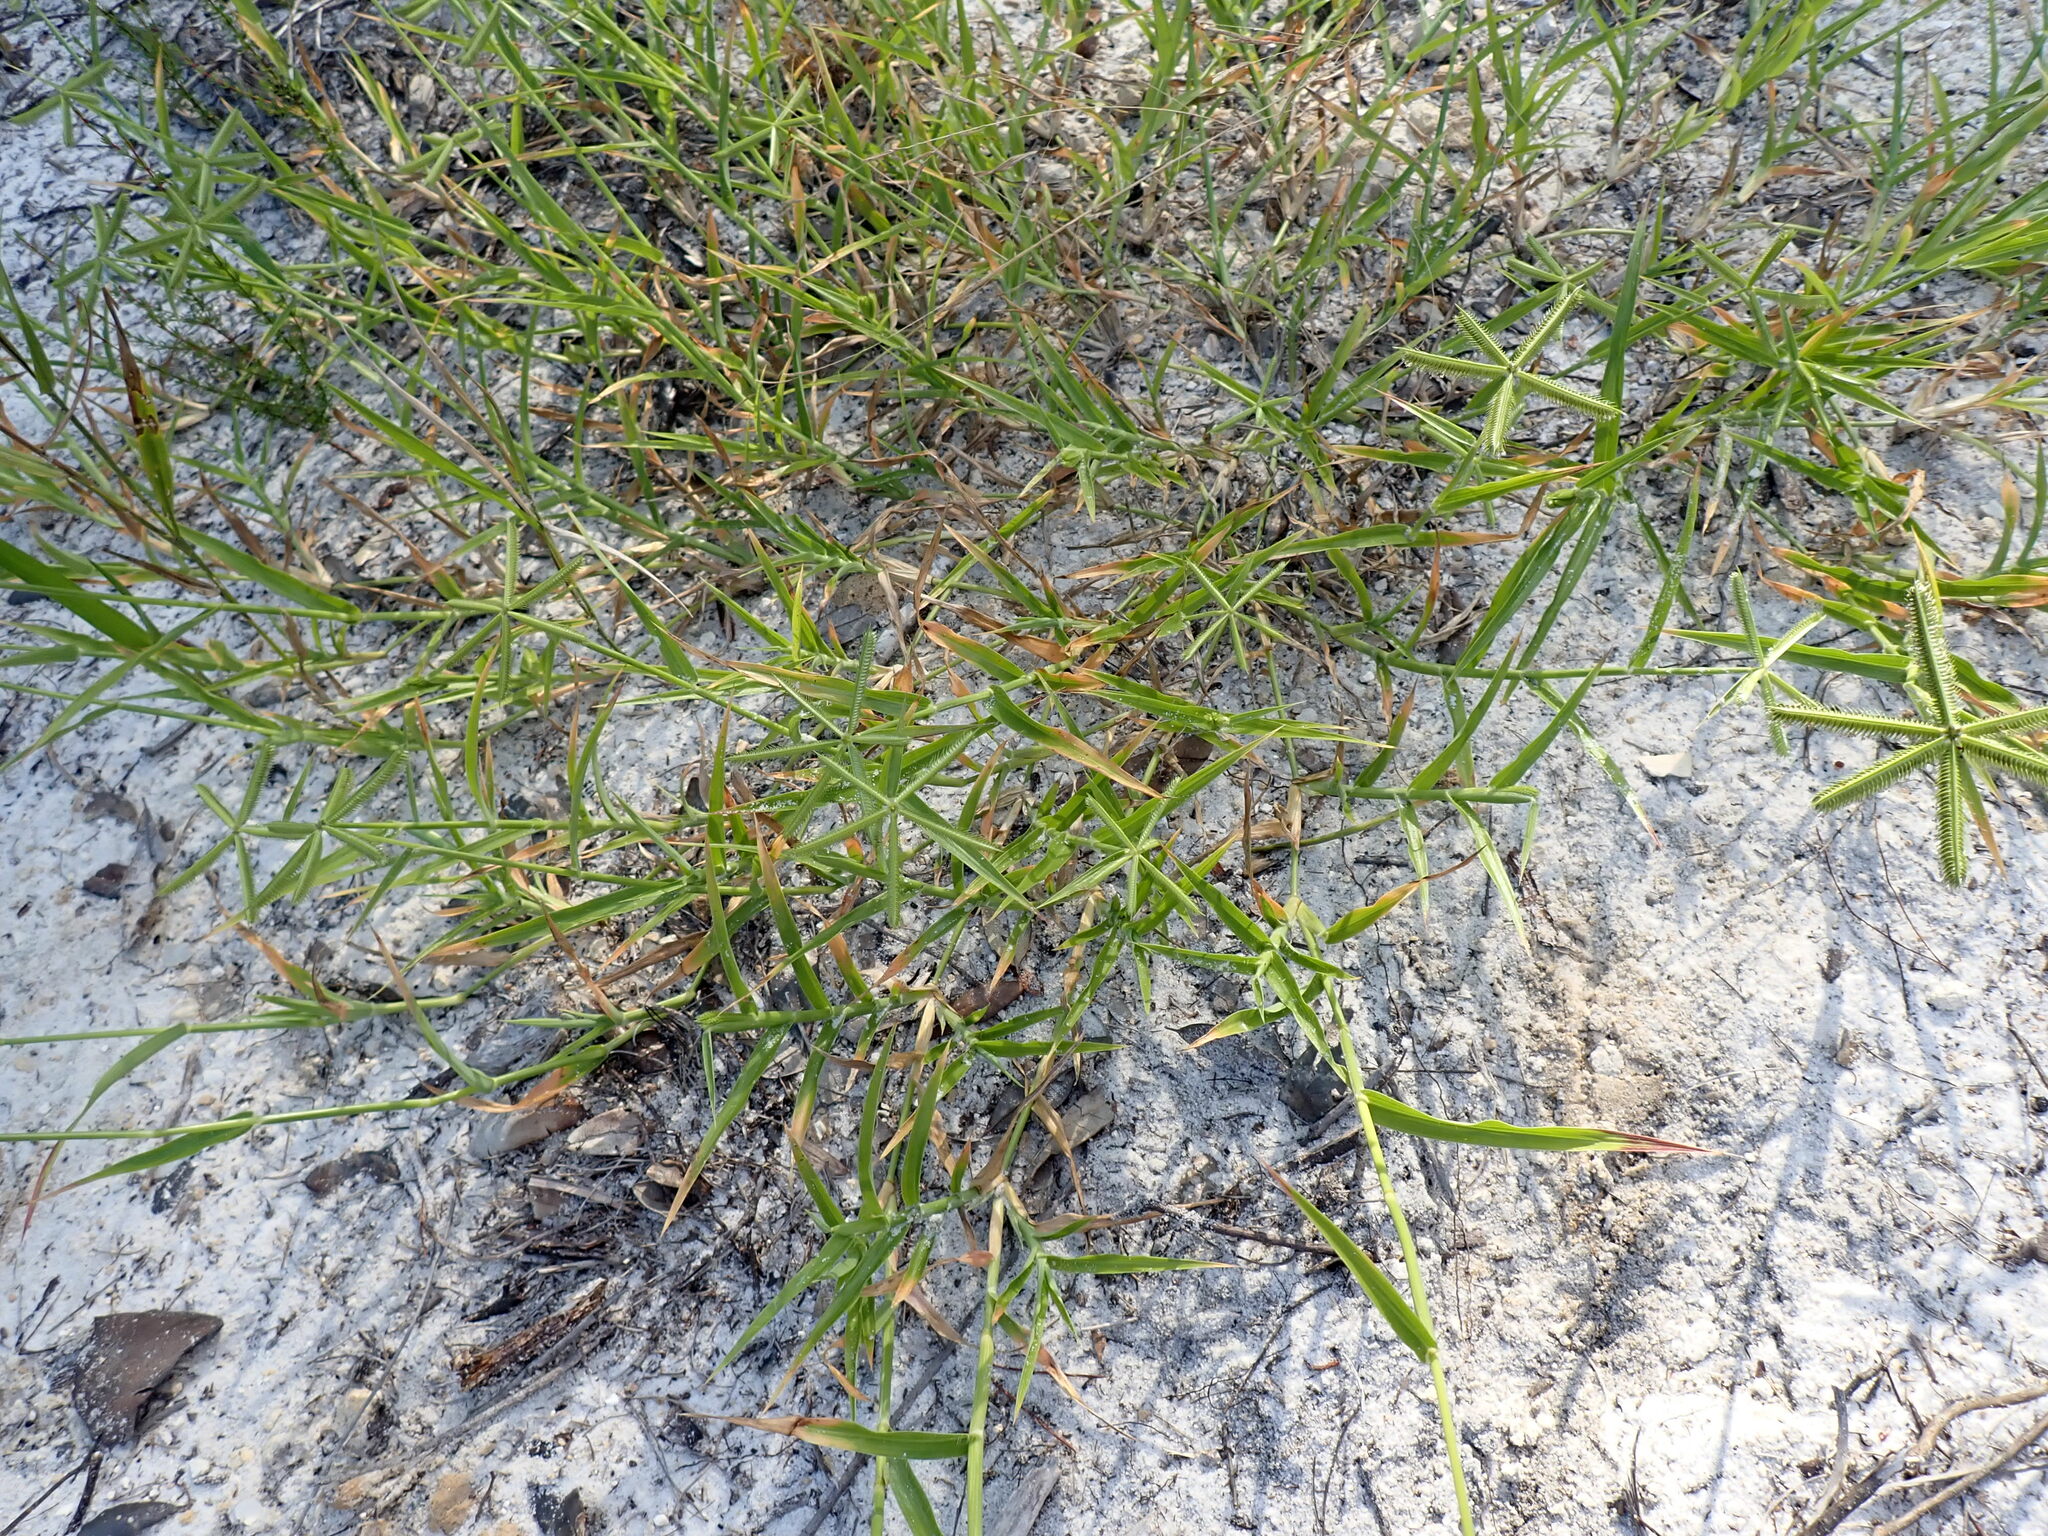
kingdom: Plantae
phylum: Tracheophyta
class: Liliopsida
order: Poales
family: Poaceae
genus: Dactyloctenium
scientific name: Dactyloctenium aegyptium
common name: Egyptian grass
